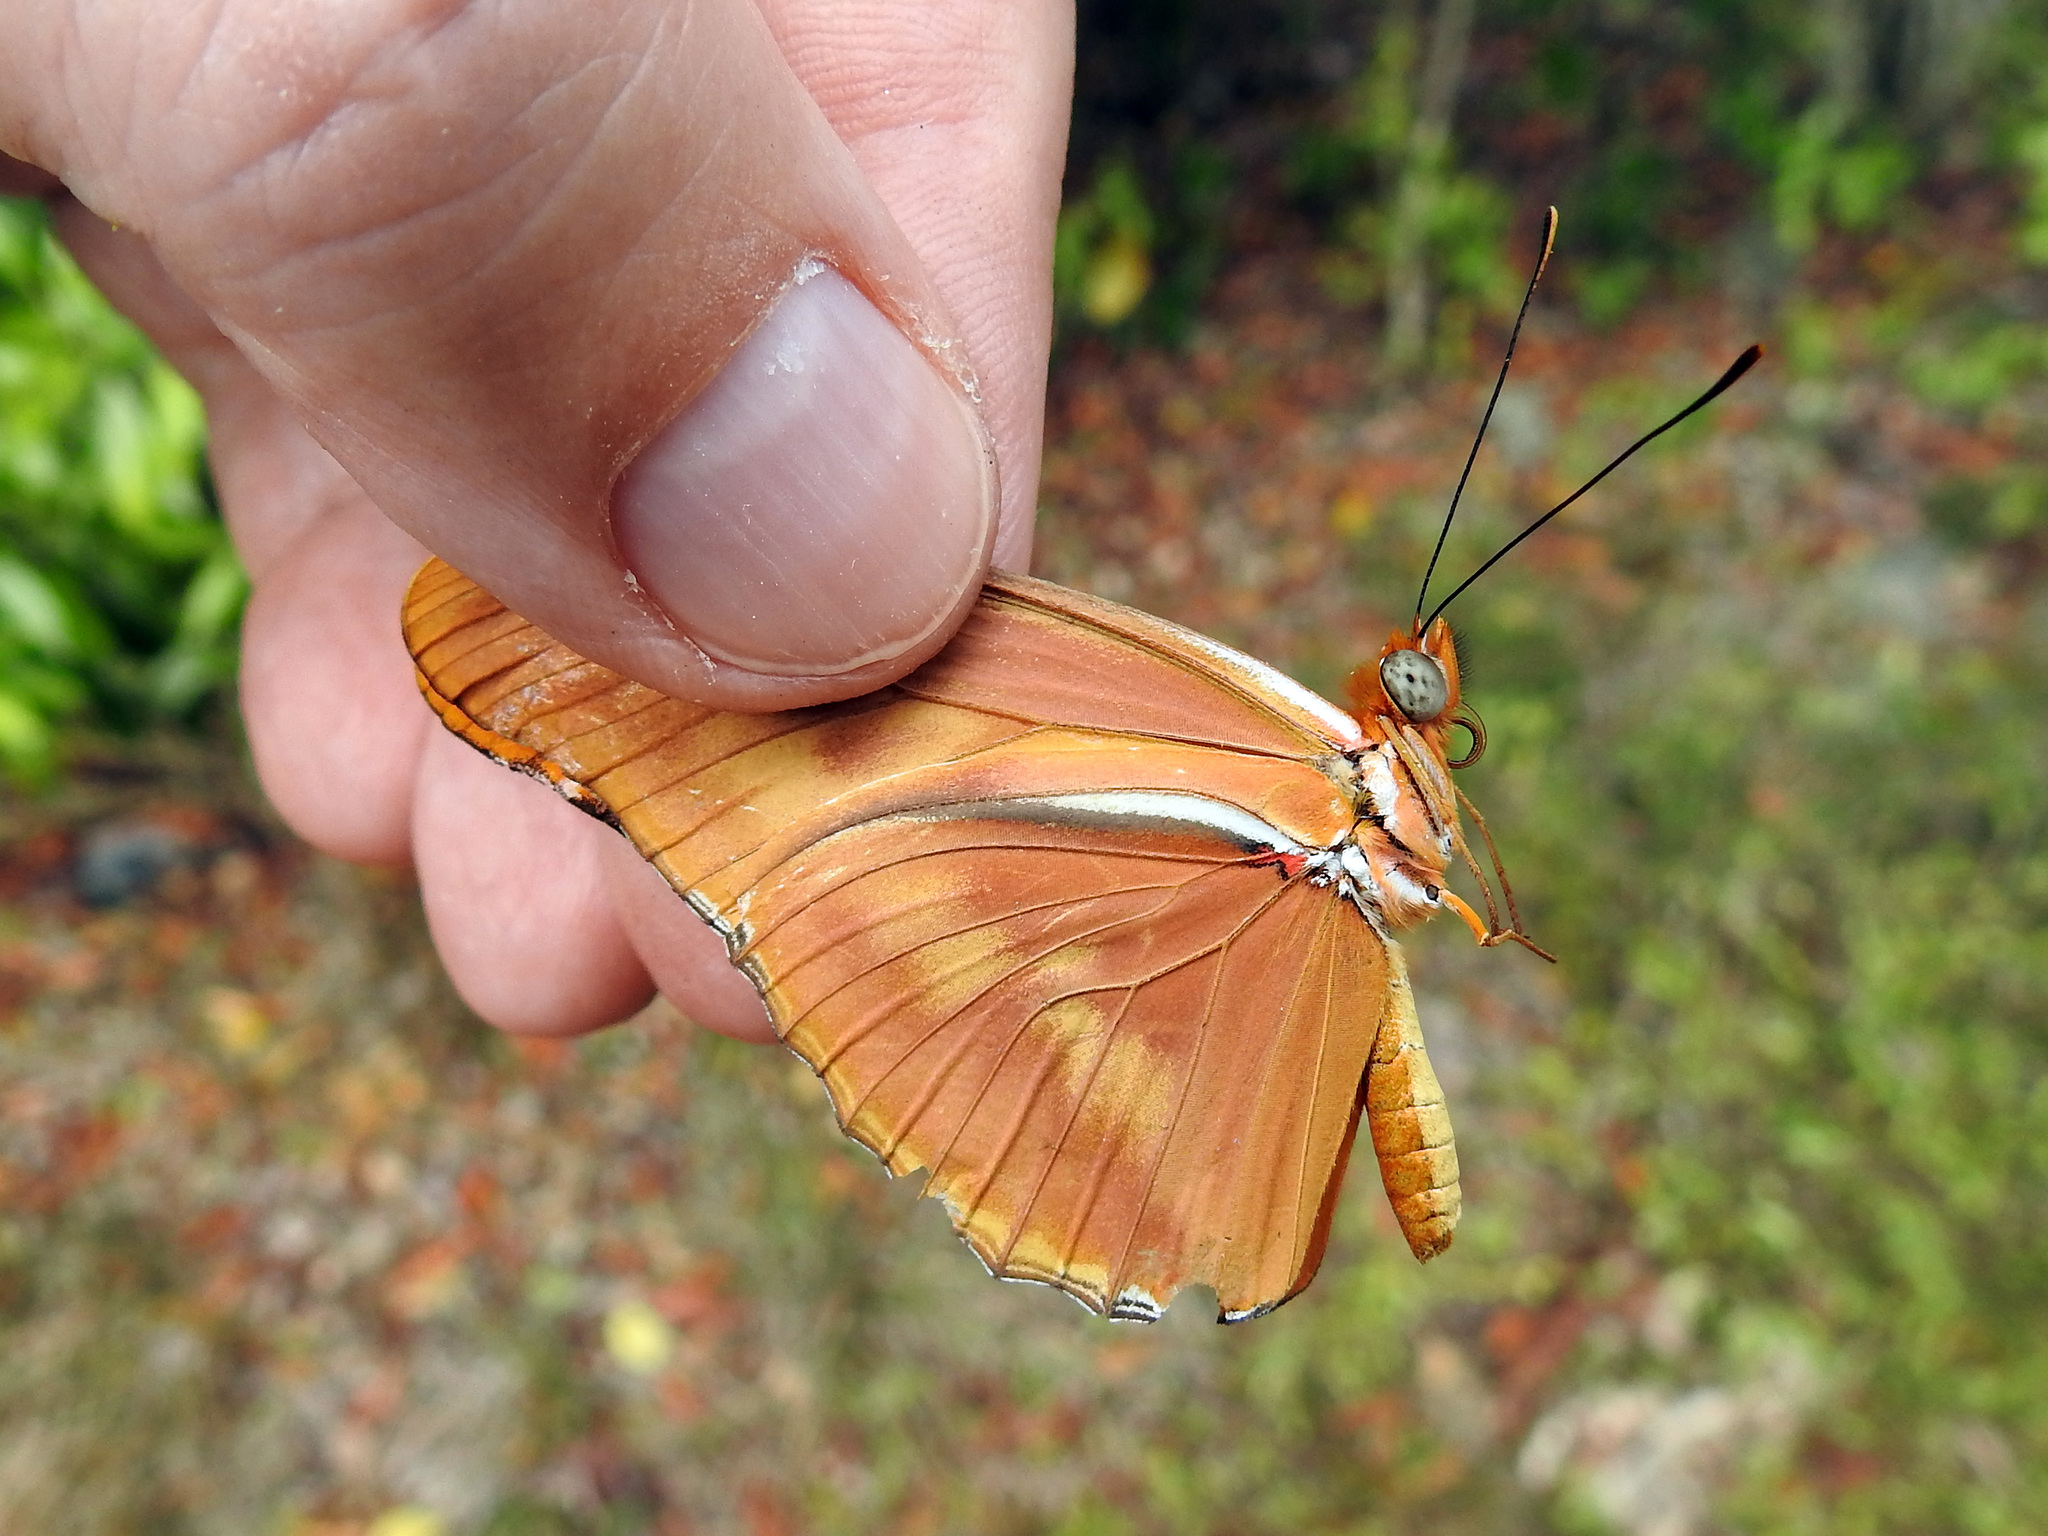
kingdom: Animalia
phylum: Arthropoda
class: Insecta
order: Lepidoptera
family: Nymphalidae
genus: Dryas
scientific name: Dryas iulia
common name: Flambeau
